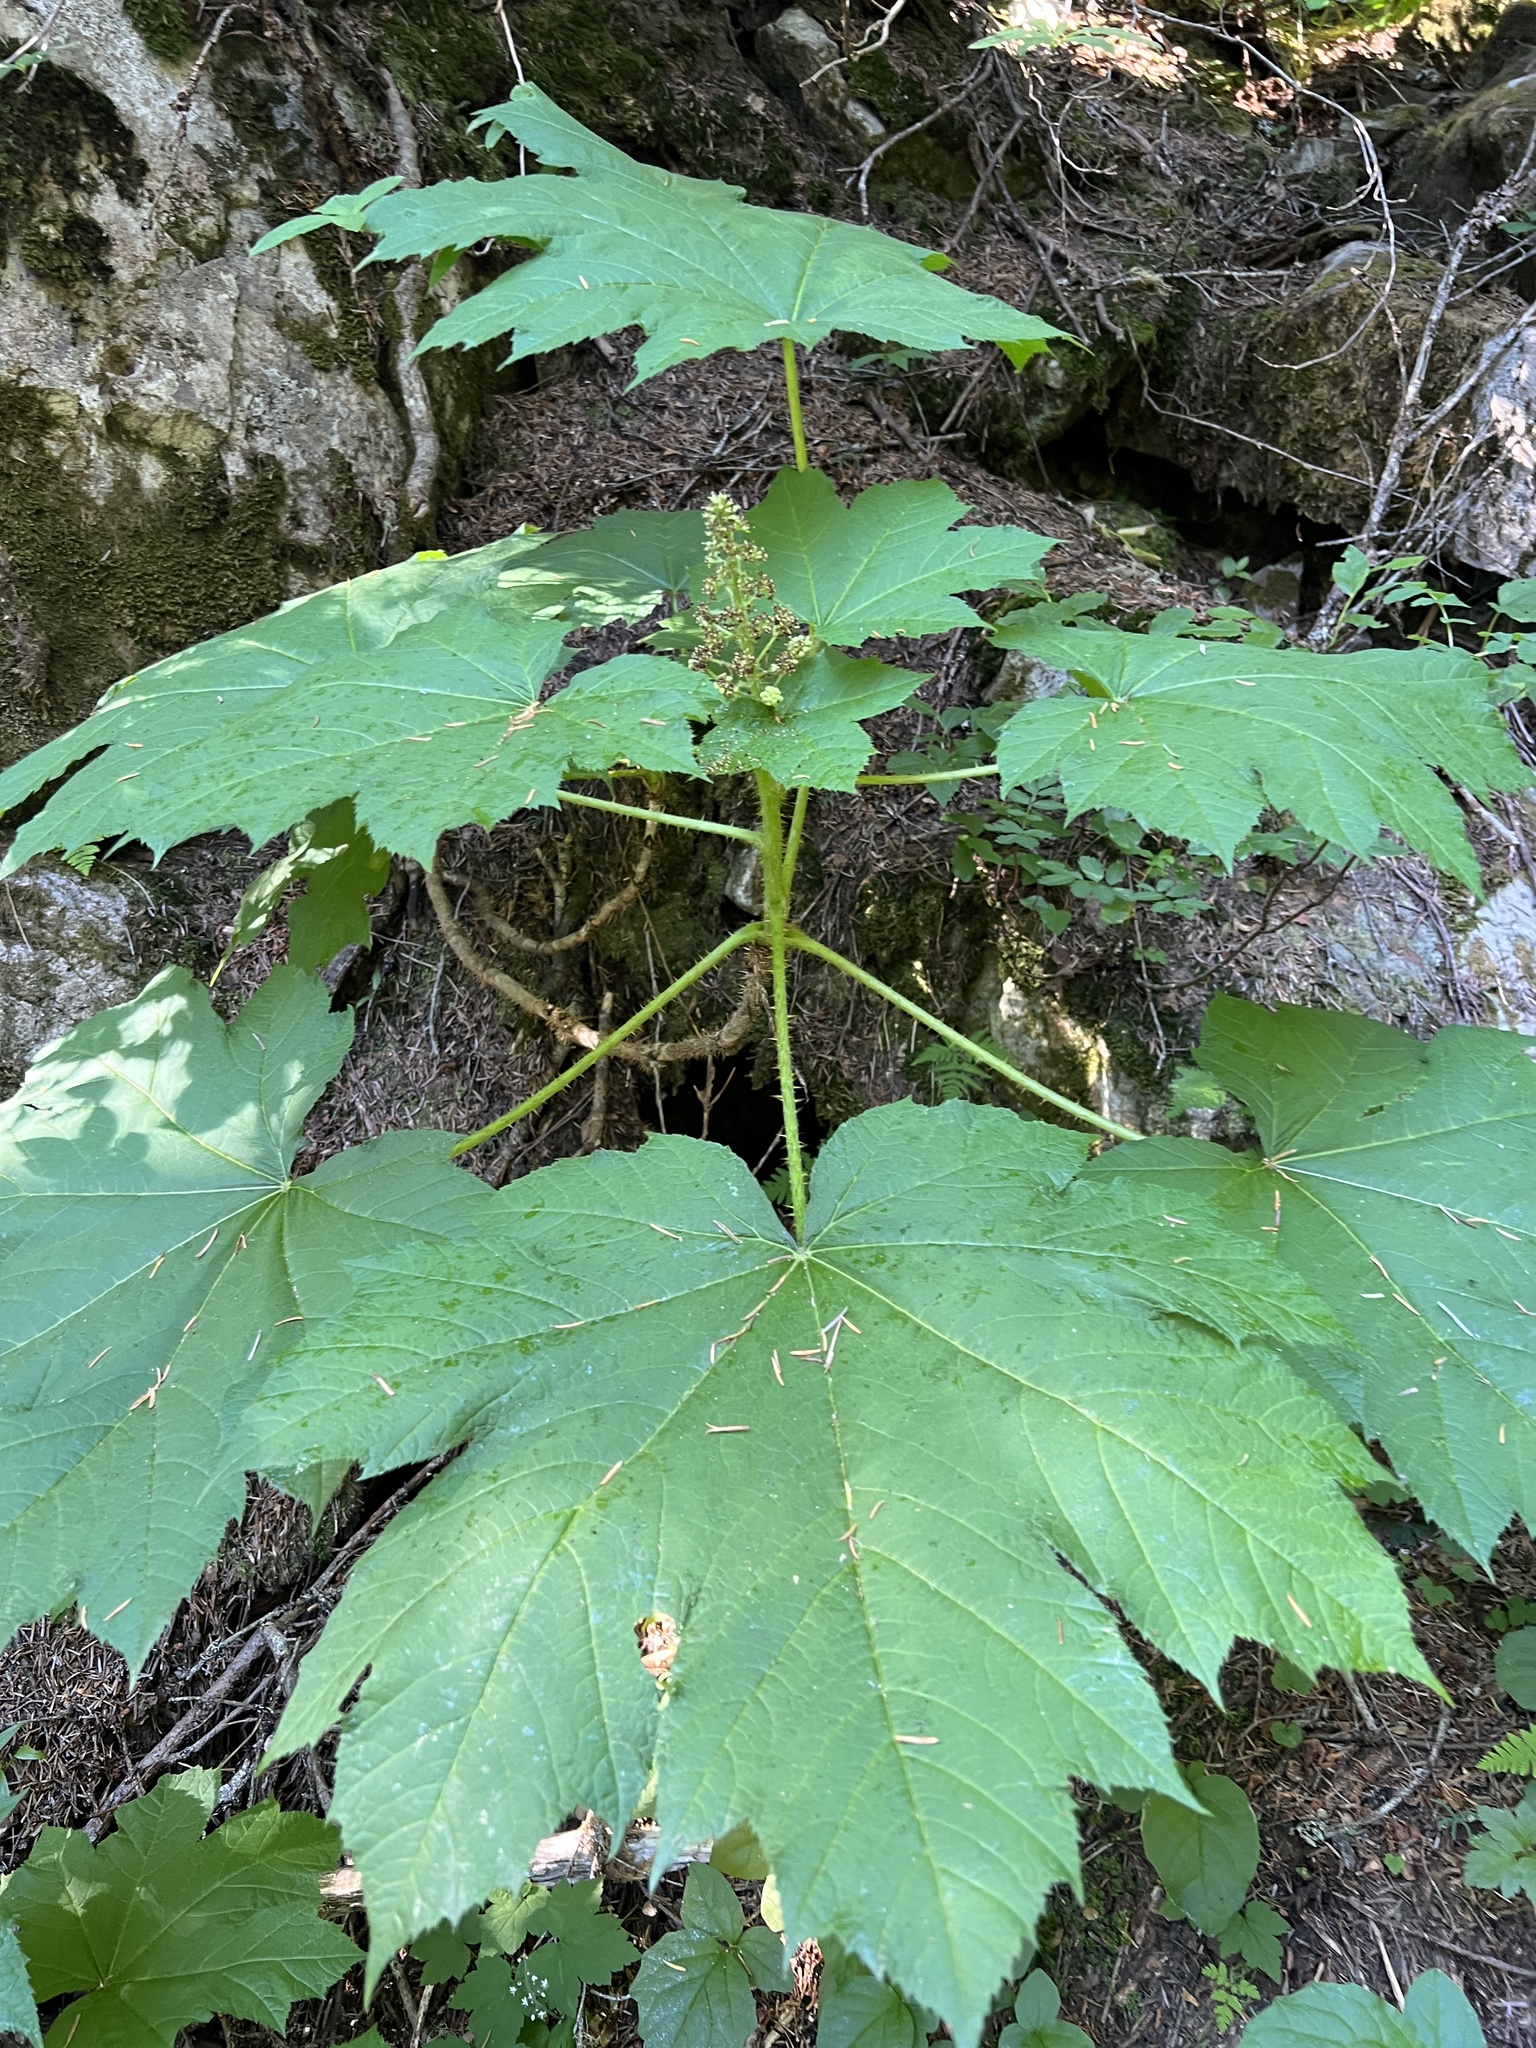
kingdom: Plantae
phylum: Tracheophyta
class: Magnoliopsida
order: Apiales
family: Araliaceae
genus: Oplopanax
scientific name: Oplopanax horridus
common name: Devil's walking-stick
